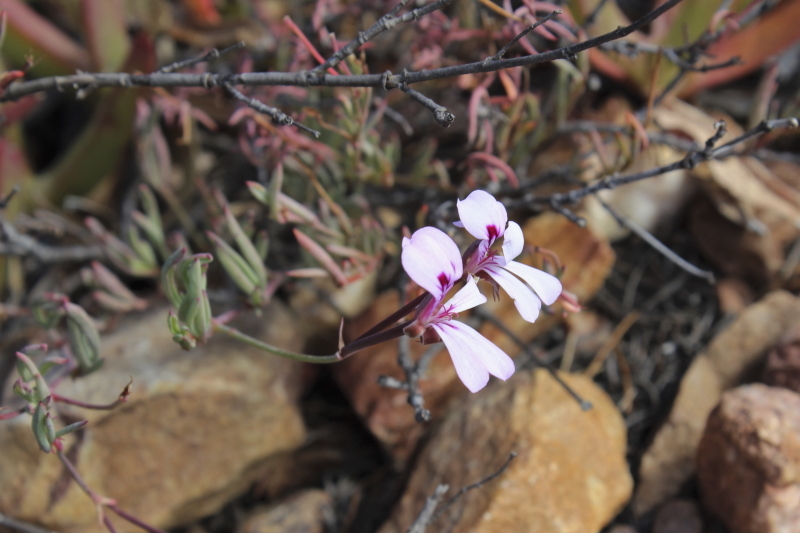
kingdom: Plantae
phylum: Tracheophyta
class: Magnoliopsida
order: Geraniales
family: Geraniaceae
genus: Pelargonium
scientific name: Pelargonium laevigatum
